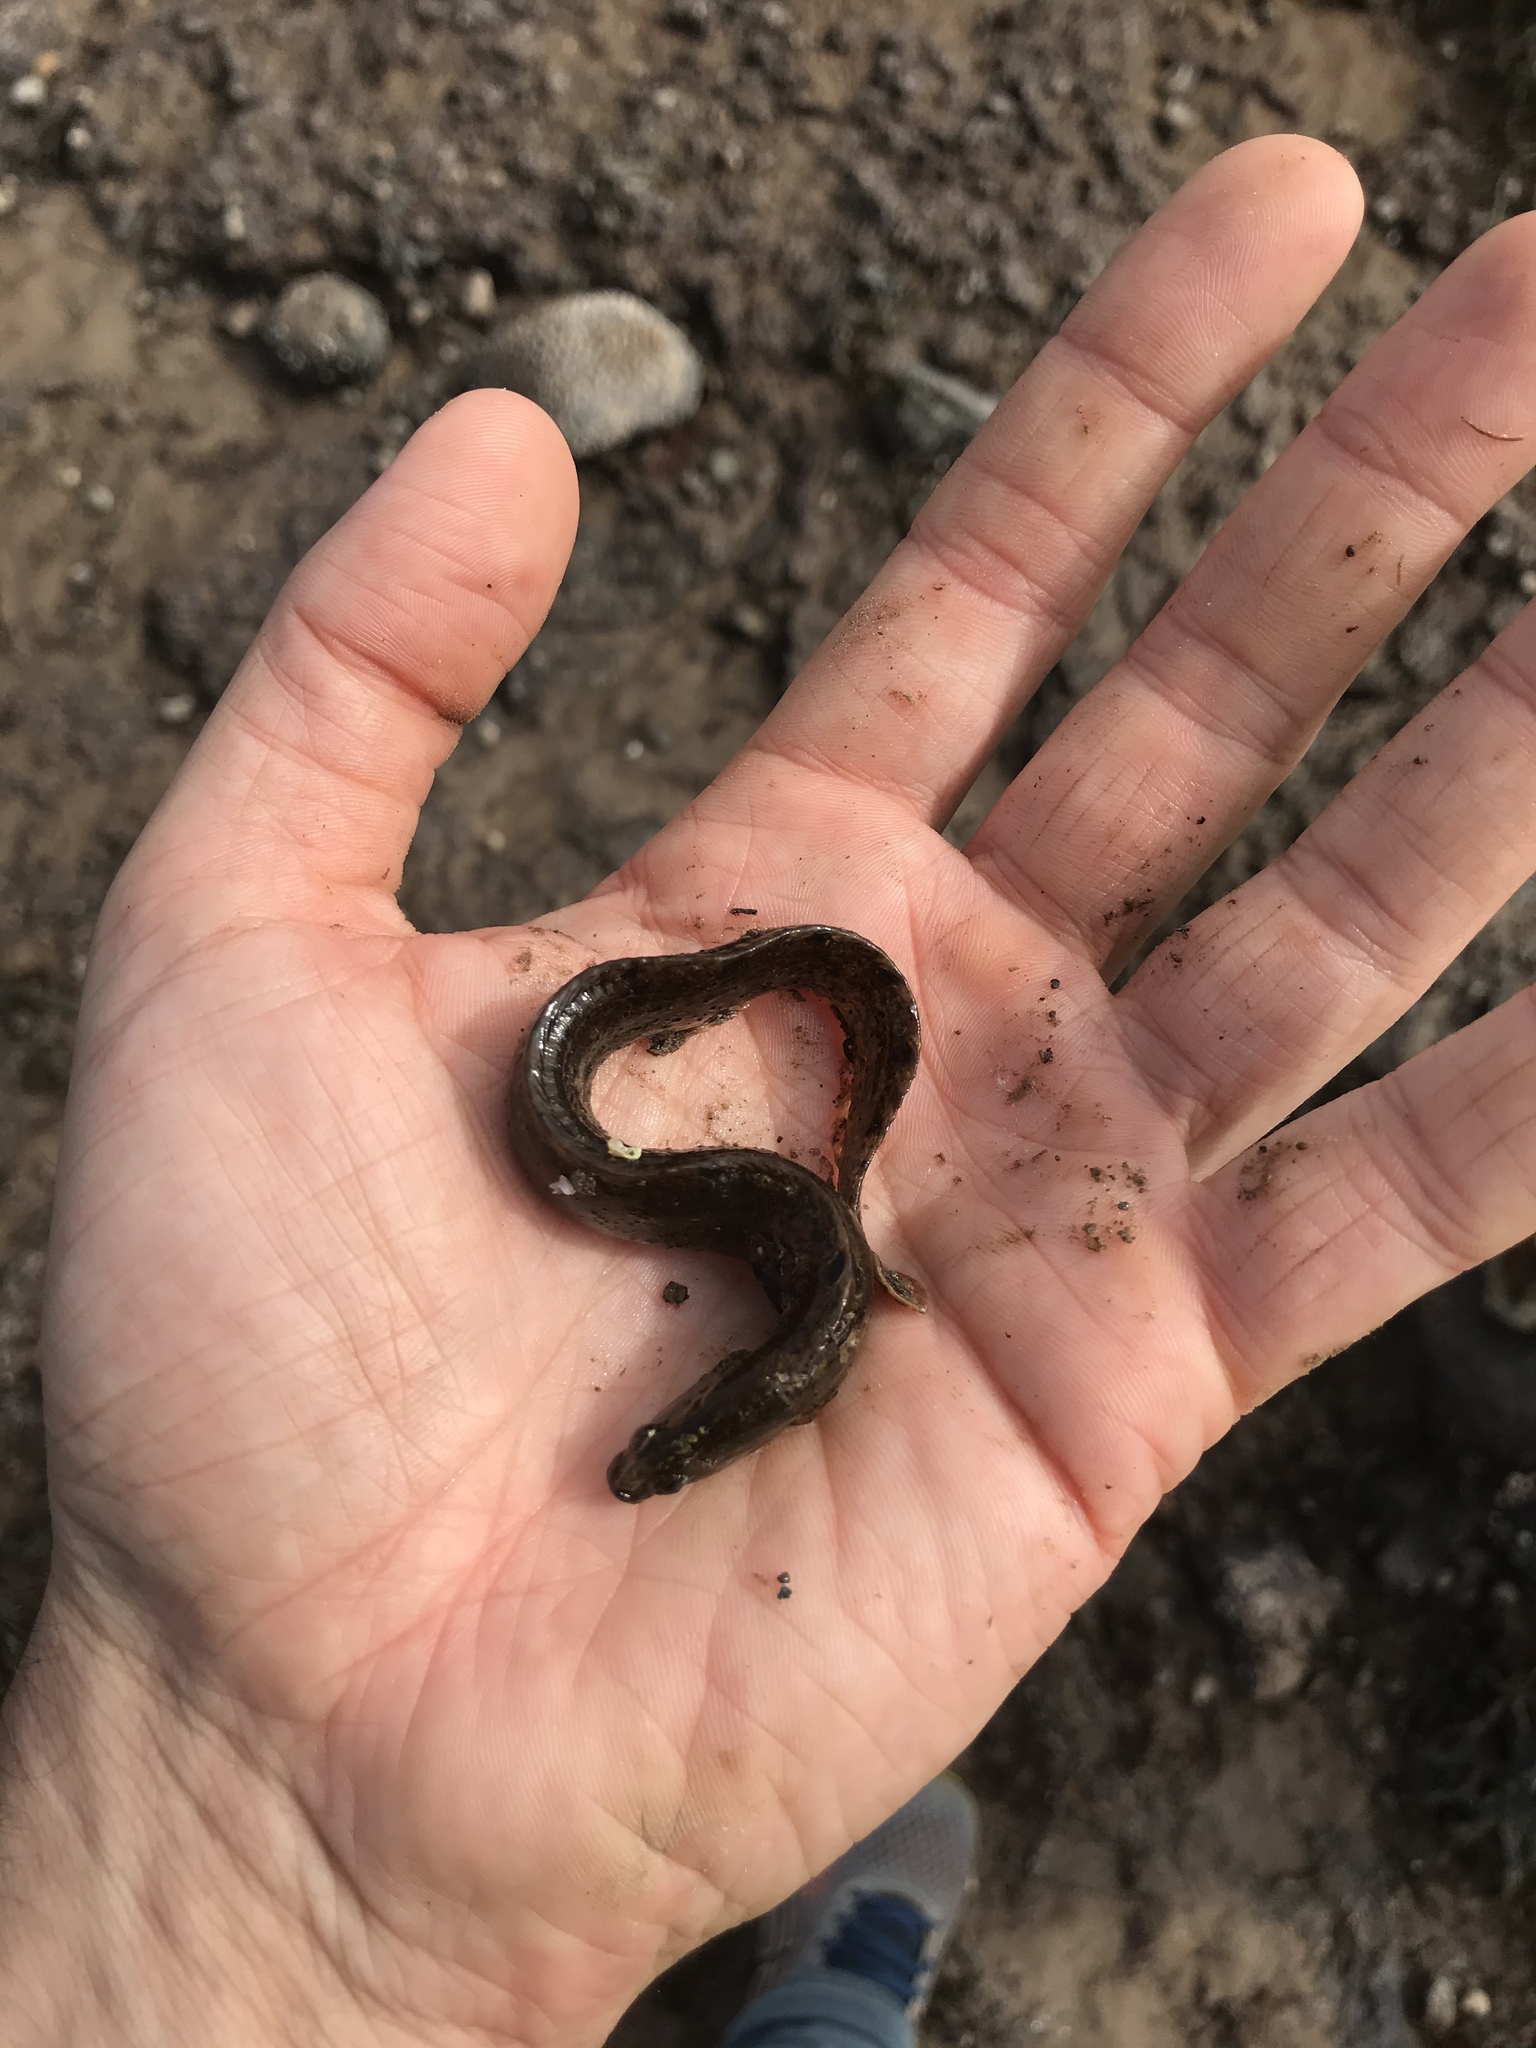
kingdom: Animalia
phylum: Chordata
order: Perciformes
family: Pholidae
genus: Pholis
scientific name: Pholis gunnellus
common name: Butterfish
